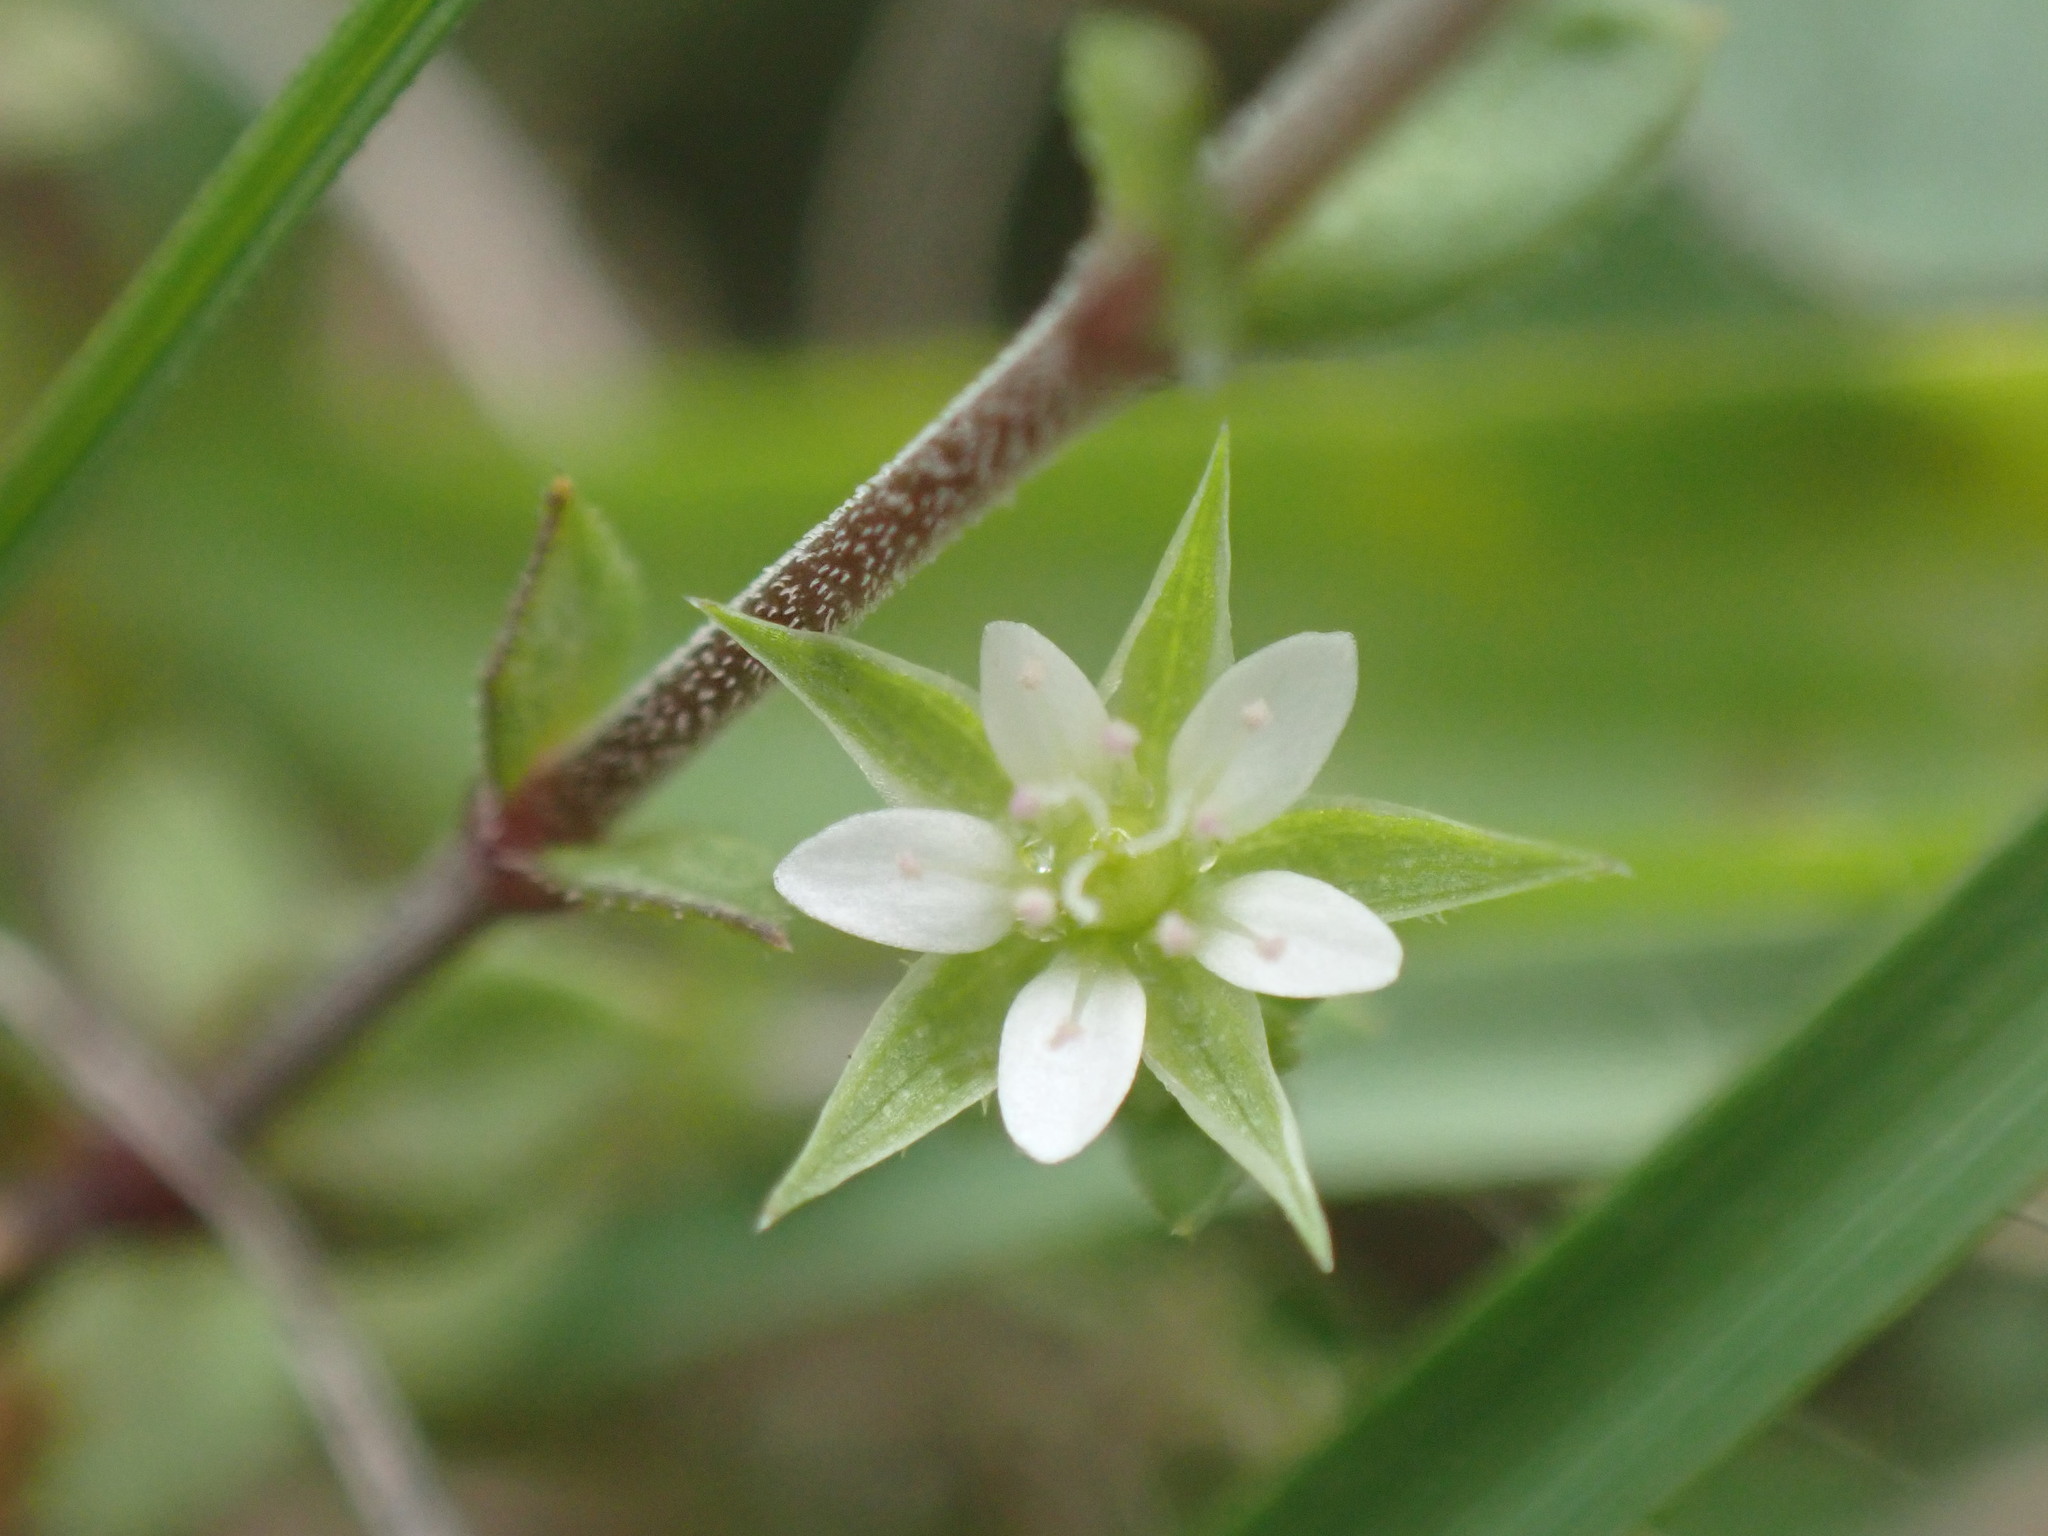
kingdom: Plantae
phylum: Tracheophyta
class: Magnoliopsida
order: Caryophyllales
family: Caryophyllaceae
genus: Arenaria
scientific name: Arenaria serpyllifolia
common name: Thyme-leaved sandwort
